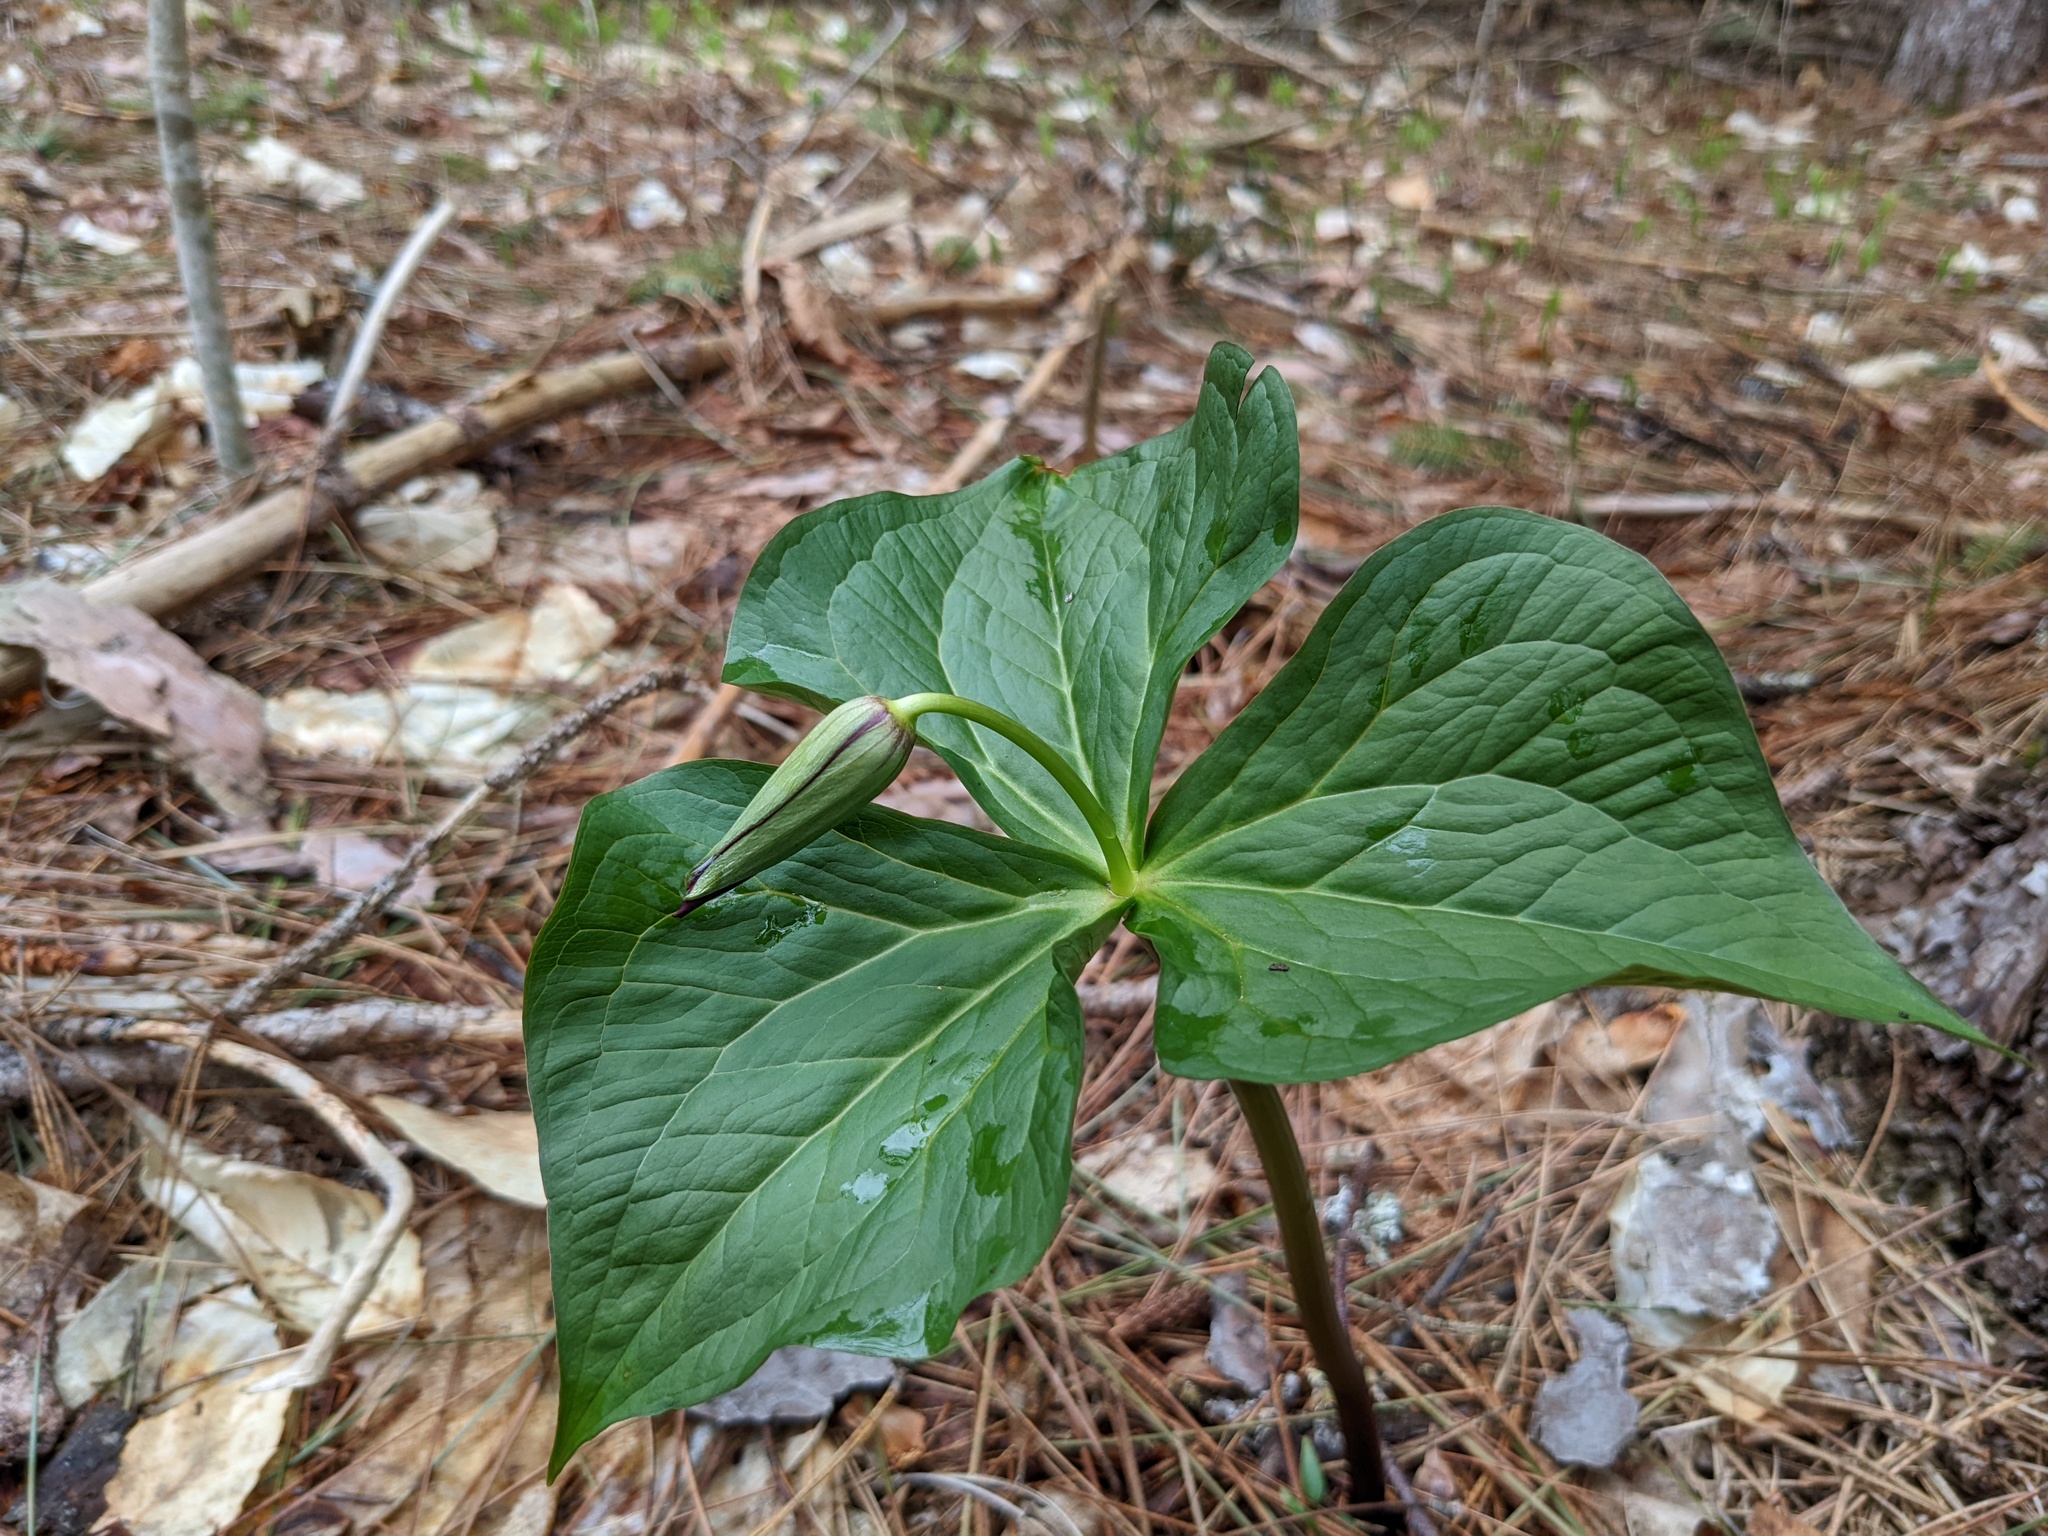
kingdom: Plantae
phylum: Tracheophyta
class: Liliopsida
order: Liliales
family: Melanthiaceae
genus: Trillium
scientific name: Trillium erectum
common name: Purple trillium
